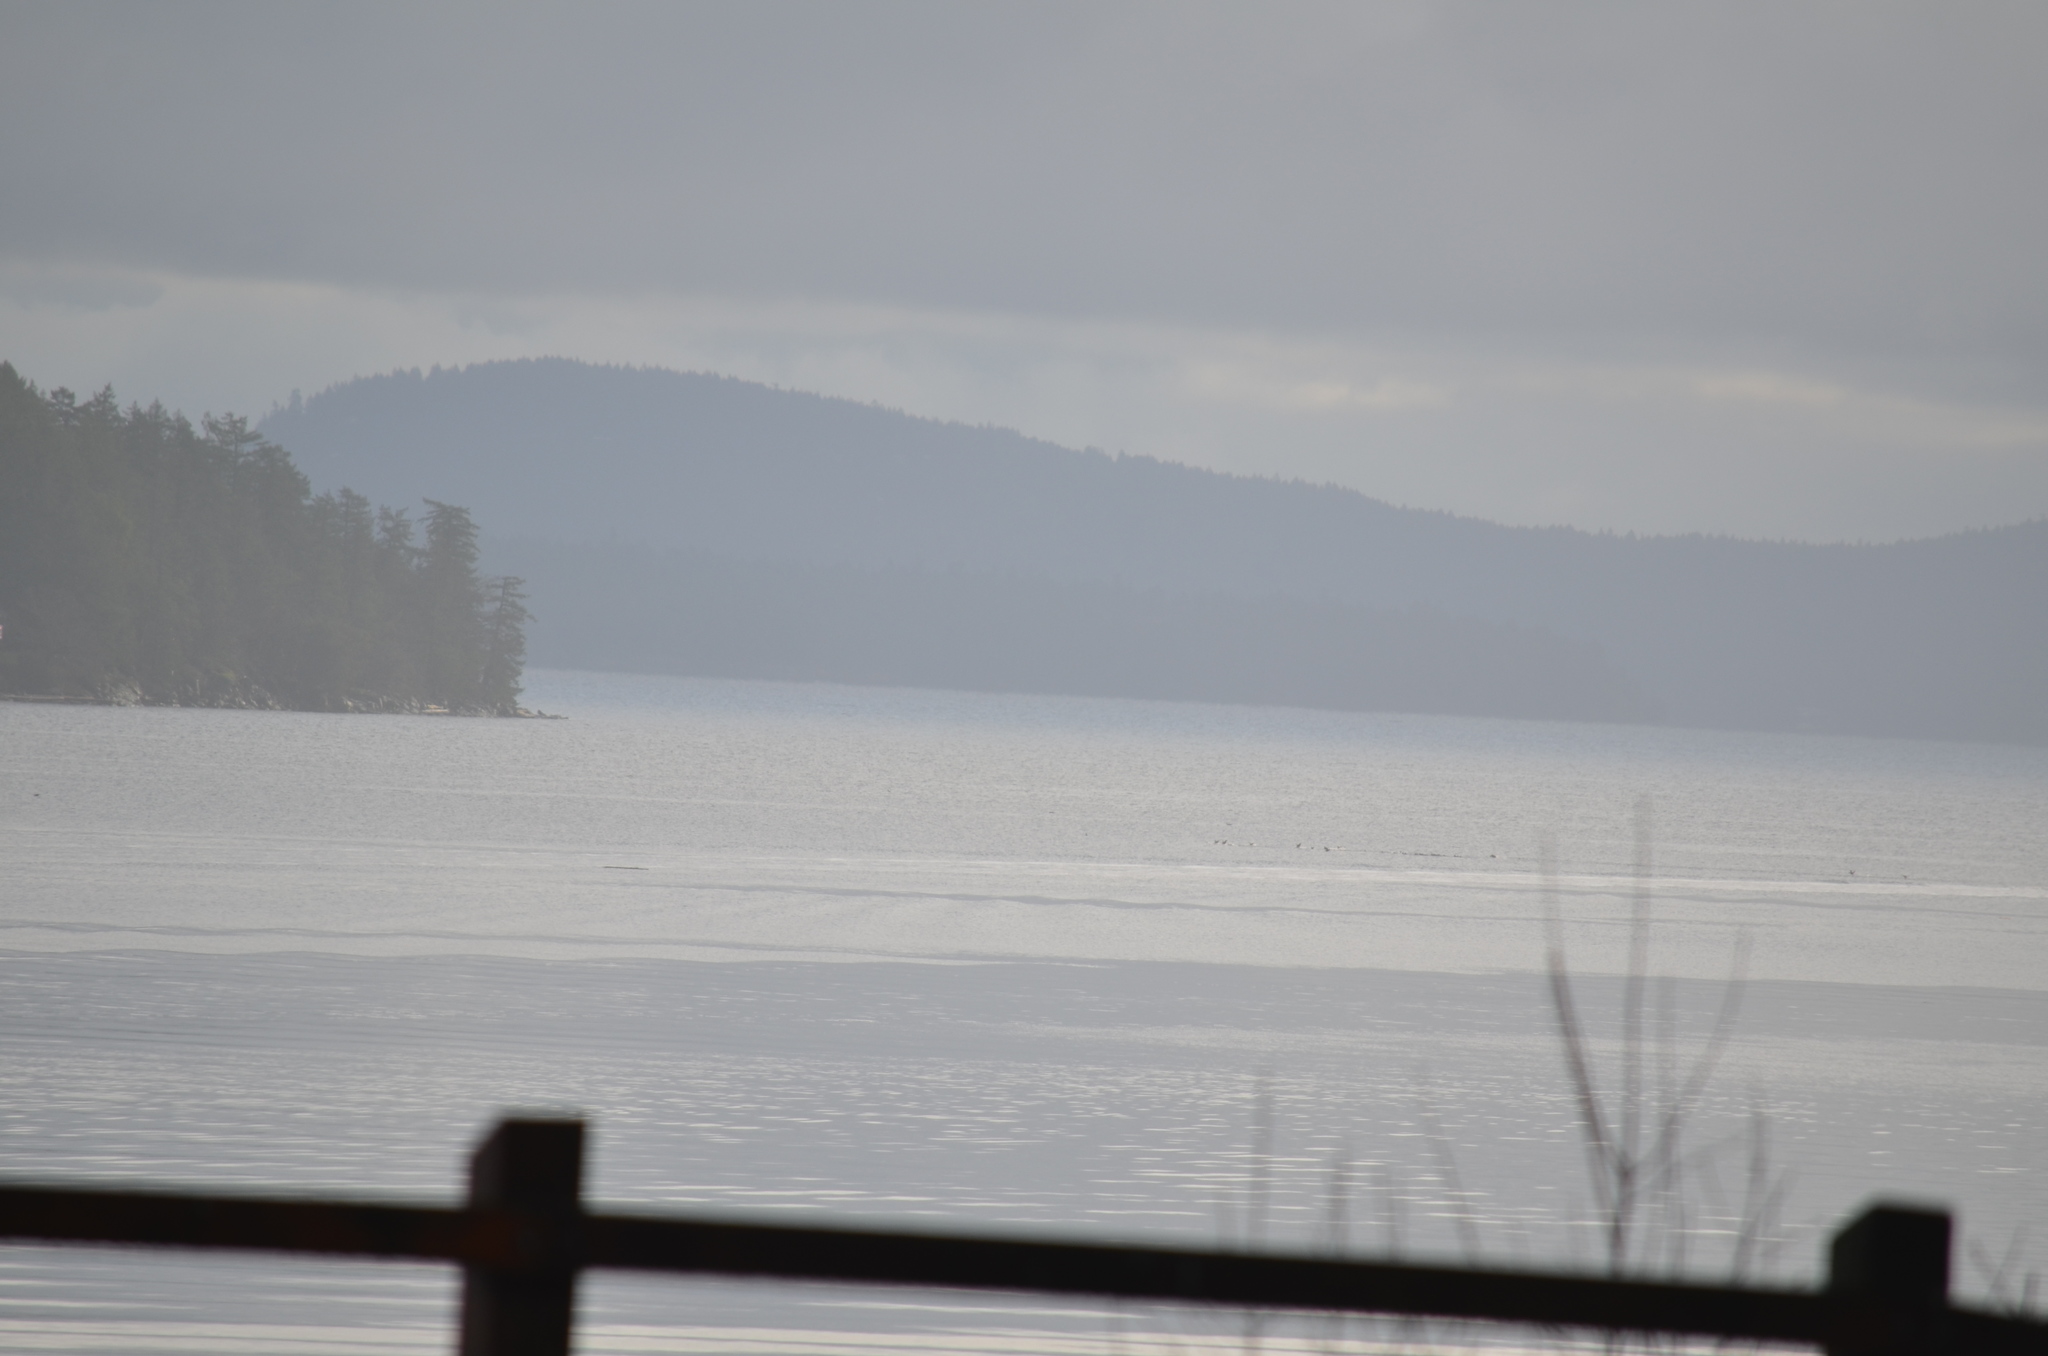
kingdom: Animalia
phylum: Chordata
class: Aves
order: Anseriformes
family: Anatidae
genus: Melanitta
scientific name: Melanitta
